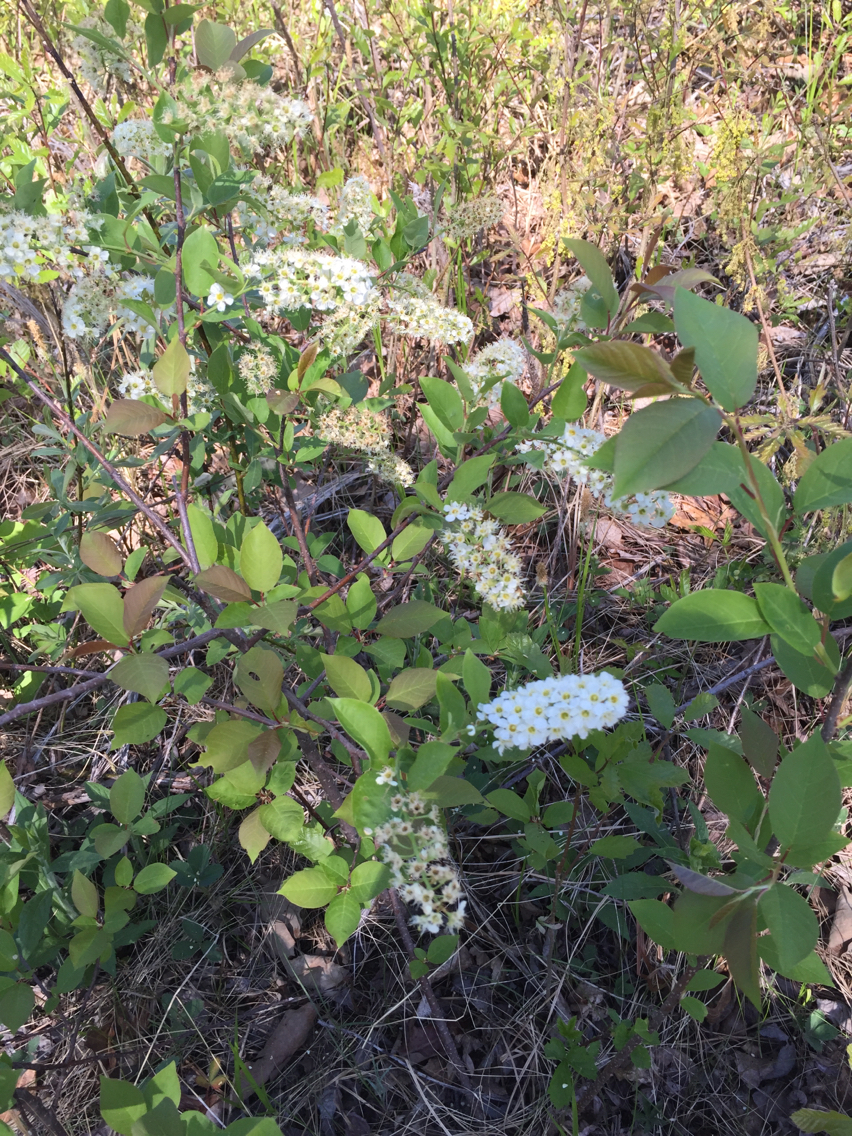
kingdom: Plantae
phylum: Tracheophyta
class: Magnoliopsida
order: Rosales
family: Rosaceae
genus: Prunus
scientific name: Prunus virginiana
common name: Chokecherry
